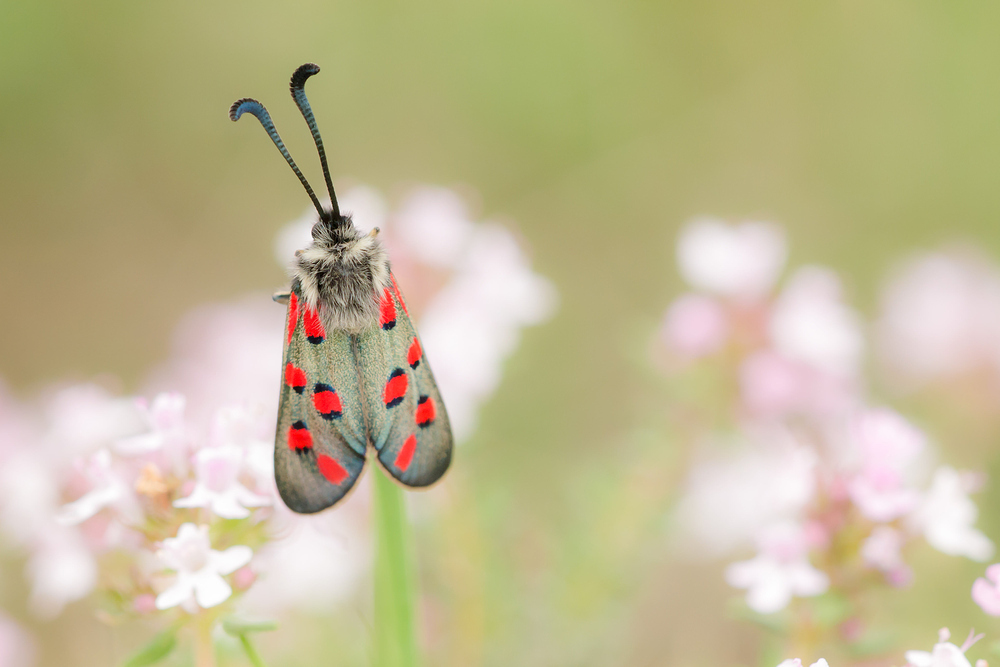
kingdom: Animalia
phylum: Arthropoda
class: Insecta
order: Lepidoptera
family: Zygaenidae
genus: Zygaena
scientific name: Zygaena rhadamanthus
